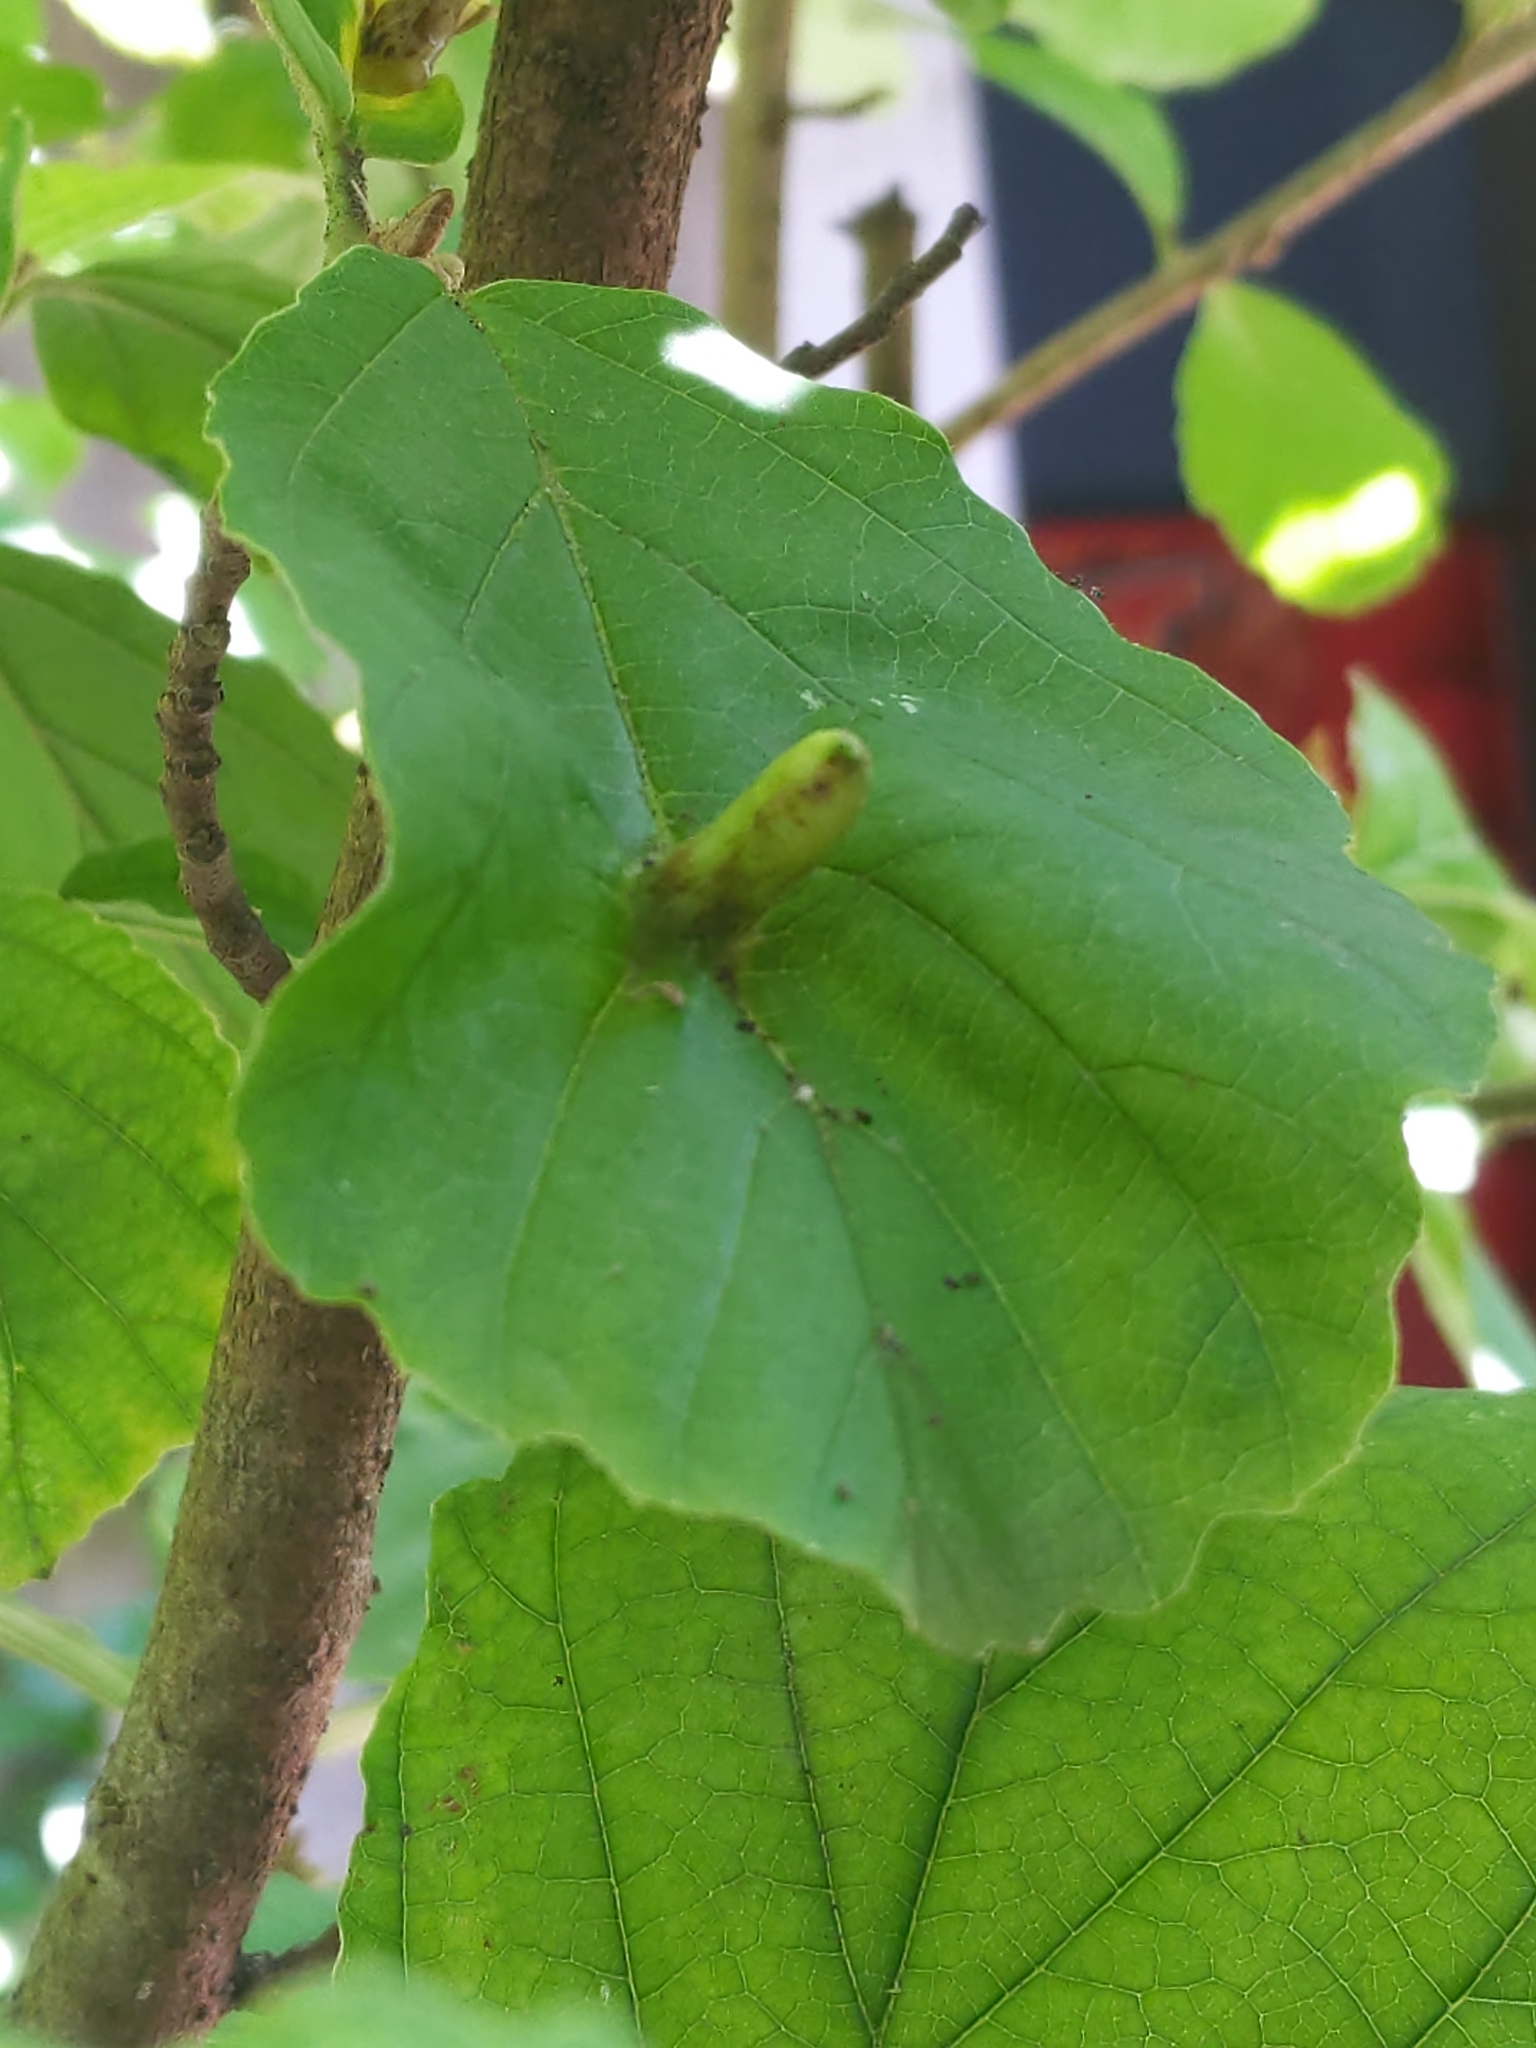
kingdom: Animalia
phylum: Arthropoda
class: Insecta
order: Hemiptera
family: Aphididae
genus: Hormaphis
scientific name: Hormaphis hamamelidis
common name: Witch-hazel cone gall aphid
